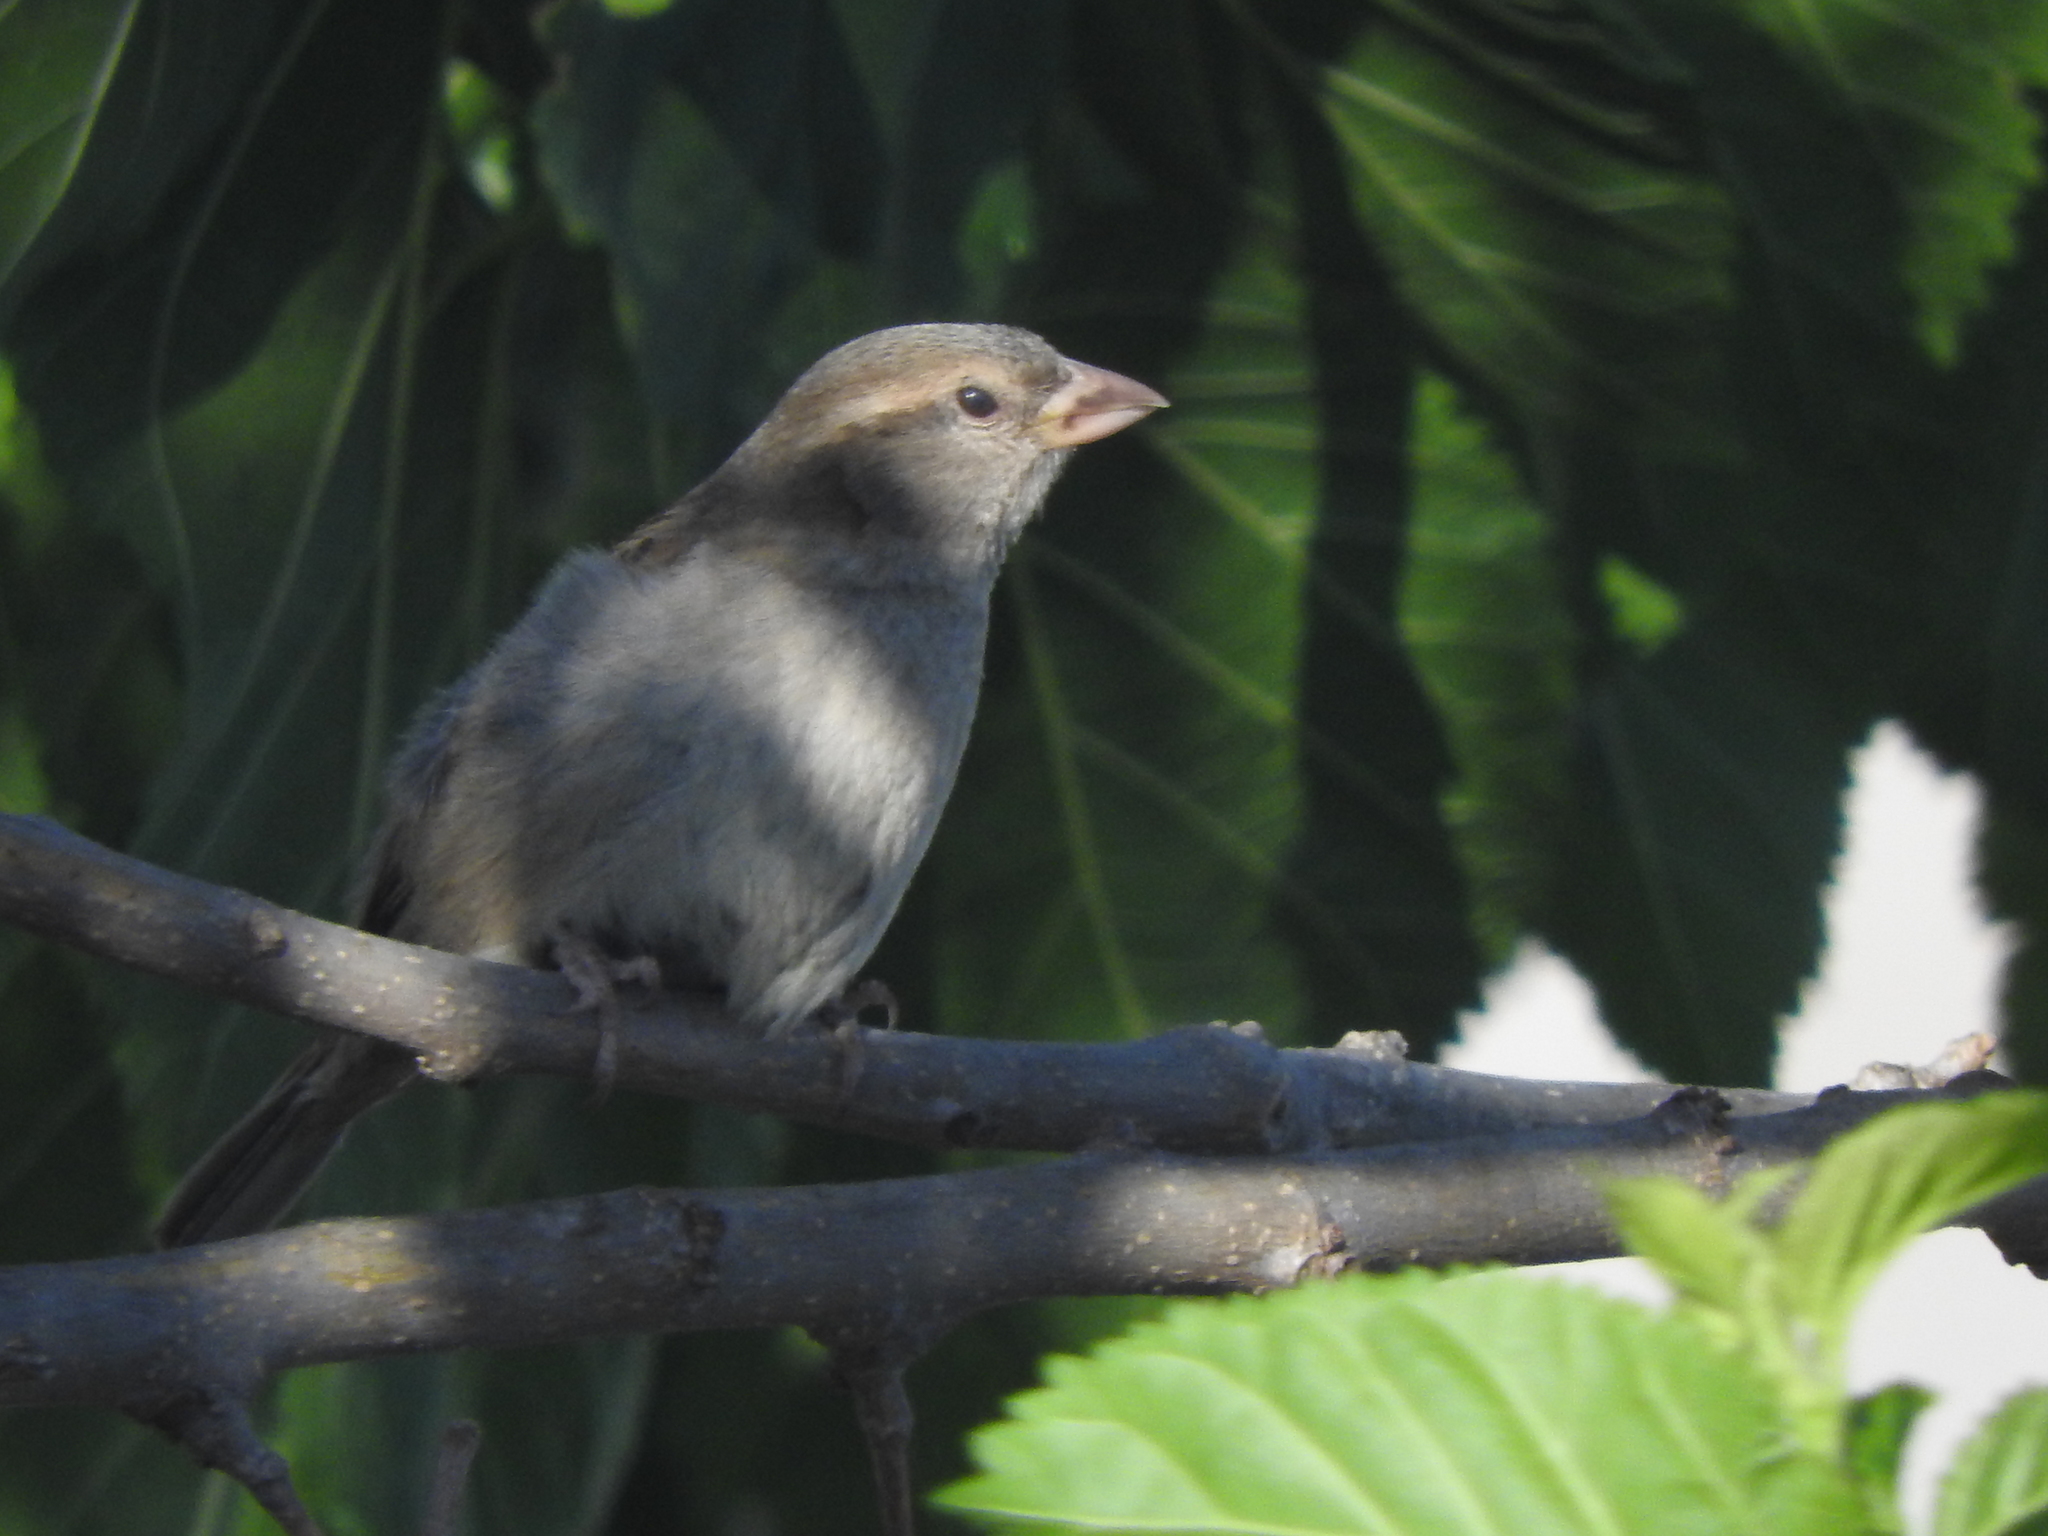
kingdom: Animalia
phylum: Chordata
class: Aves
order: Passeriformes
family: Passeridae
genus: Passer
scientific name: Passer domesticus
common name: House sparrow
